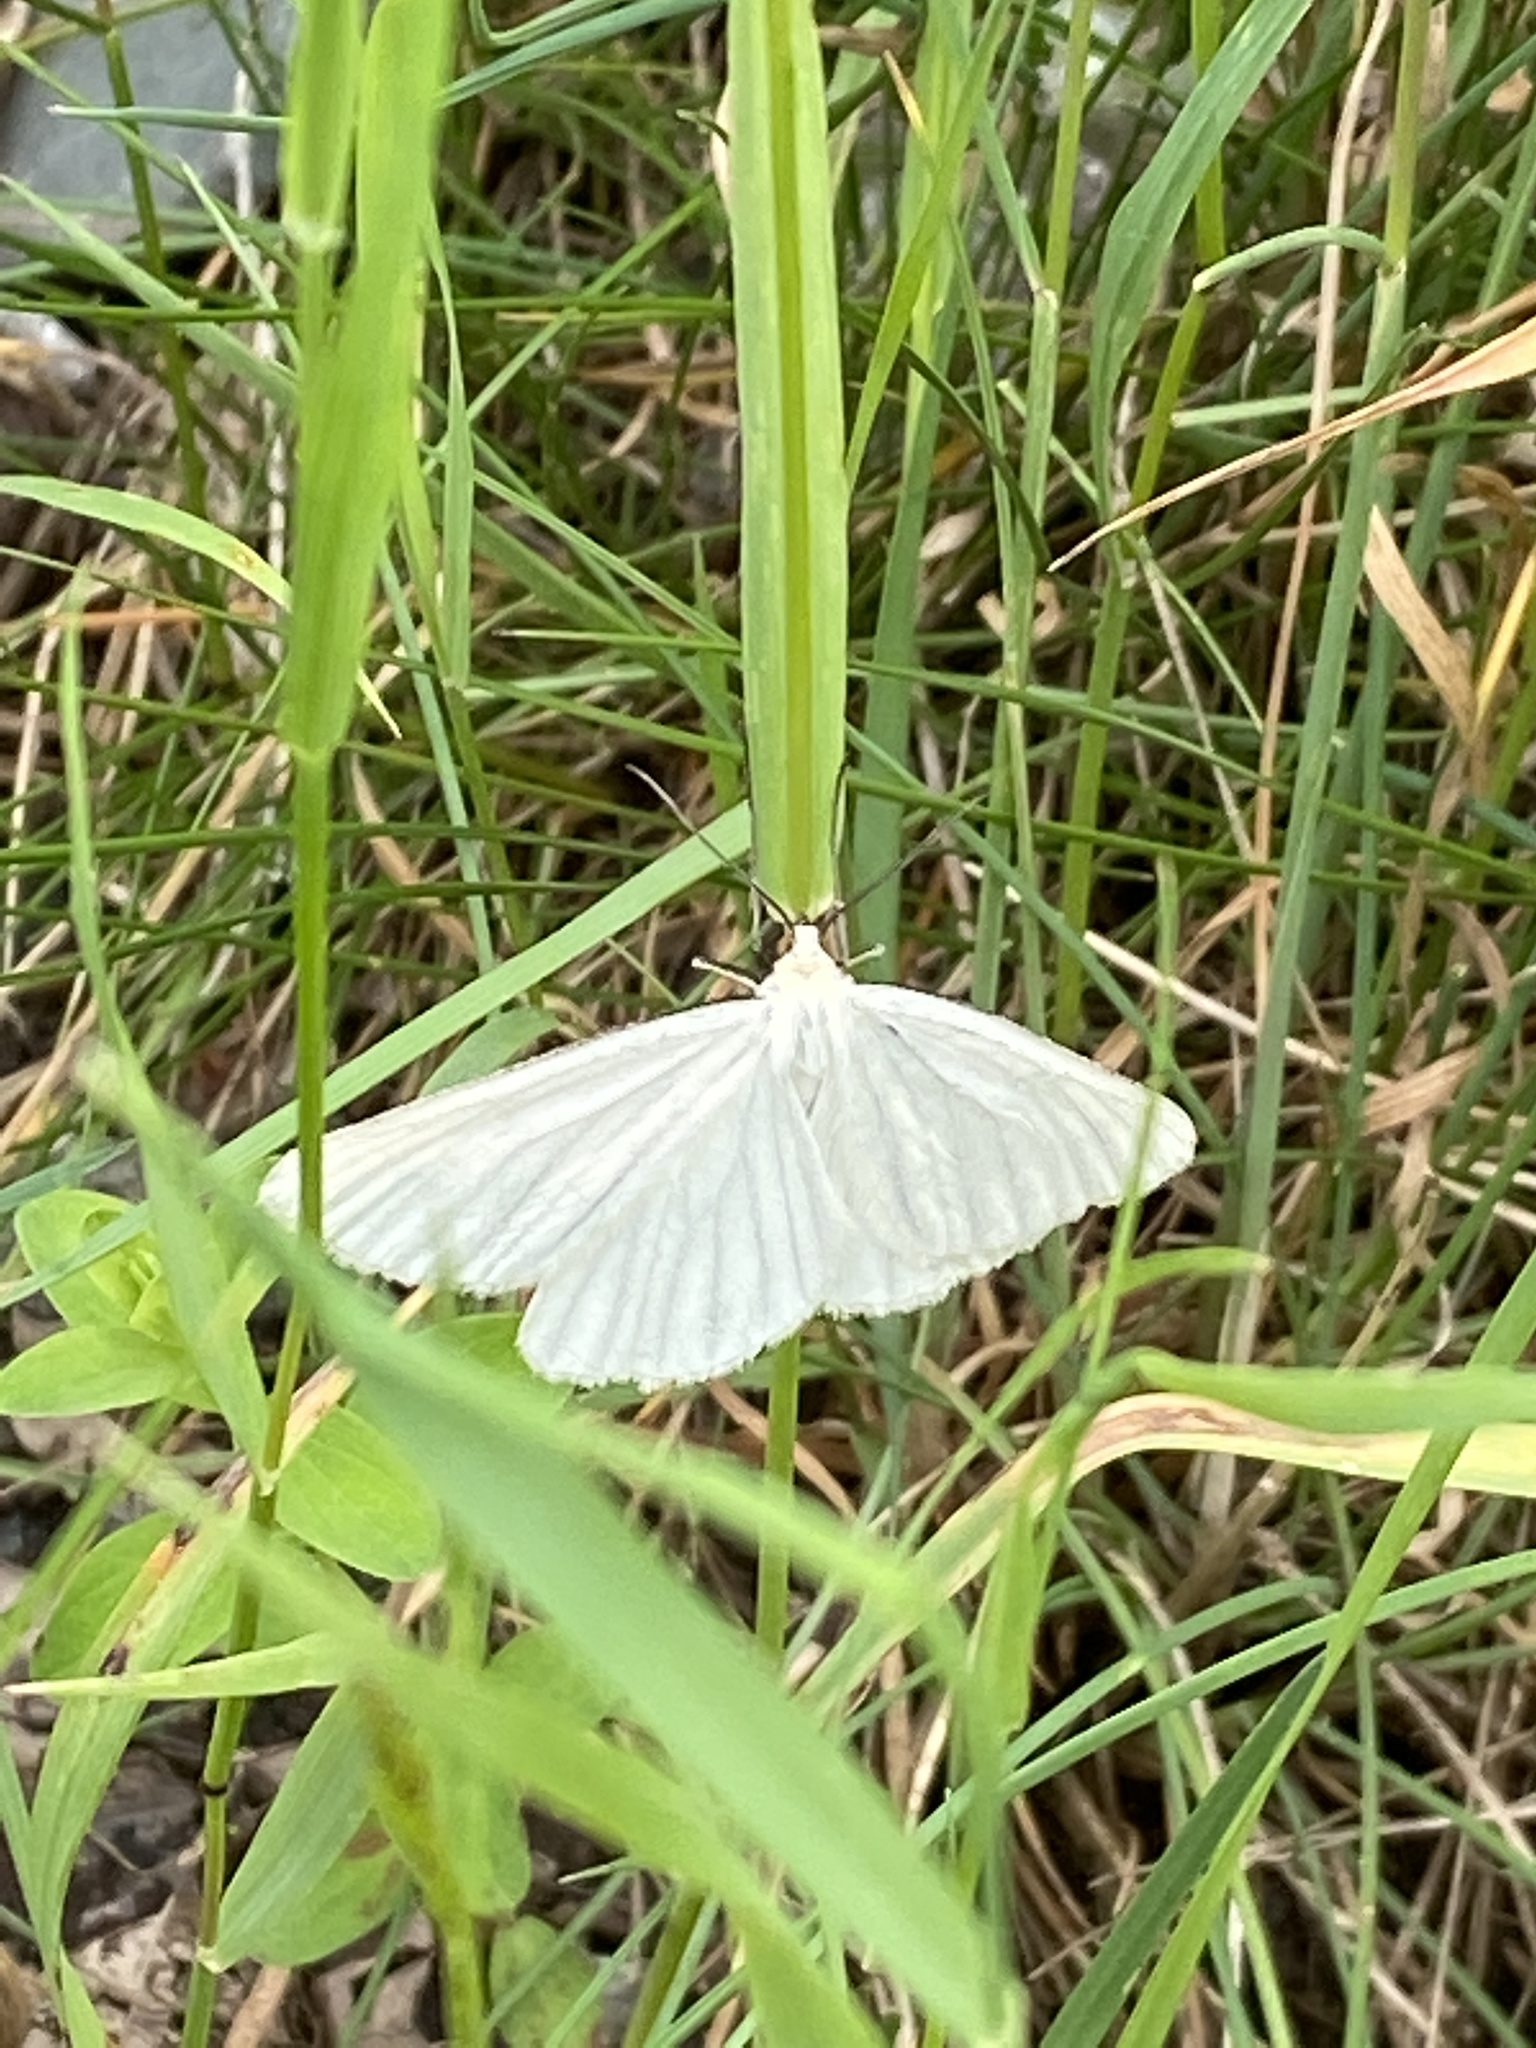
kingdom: Animalia
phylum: Arthropoda
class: Insecta
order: Lepidoptera
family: Geometridae
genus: Siona
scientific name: Siona lineata
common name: Black-veined moth
